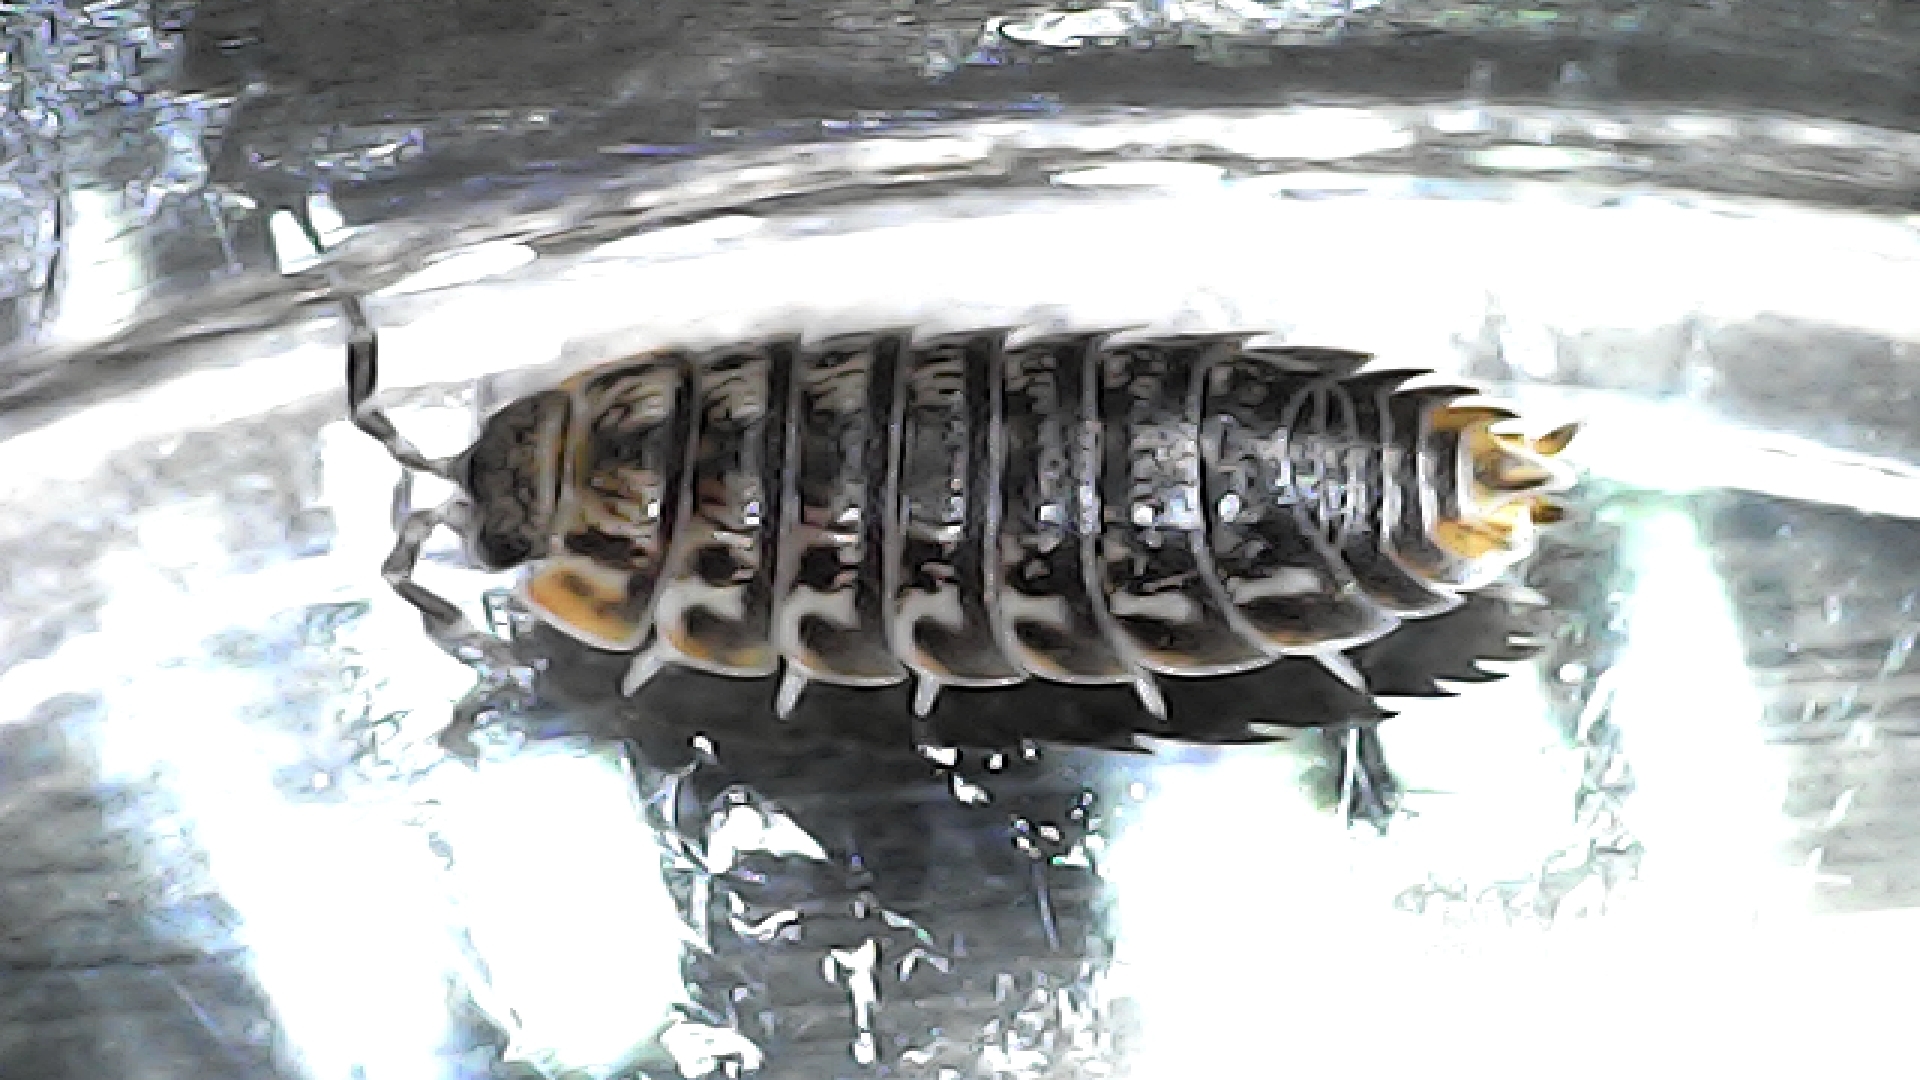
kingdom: Animalia
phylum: Arthropoda
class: Malacostraca
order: Isopoda
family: Porcellionidae
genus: Agabiformius
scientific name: Agabiformius lentus
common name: Pillbug
